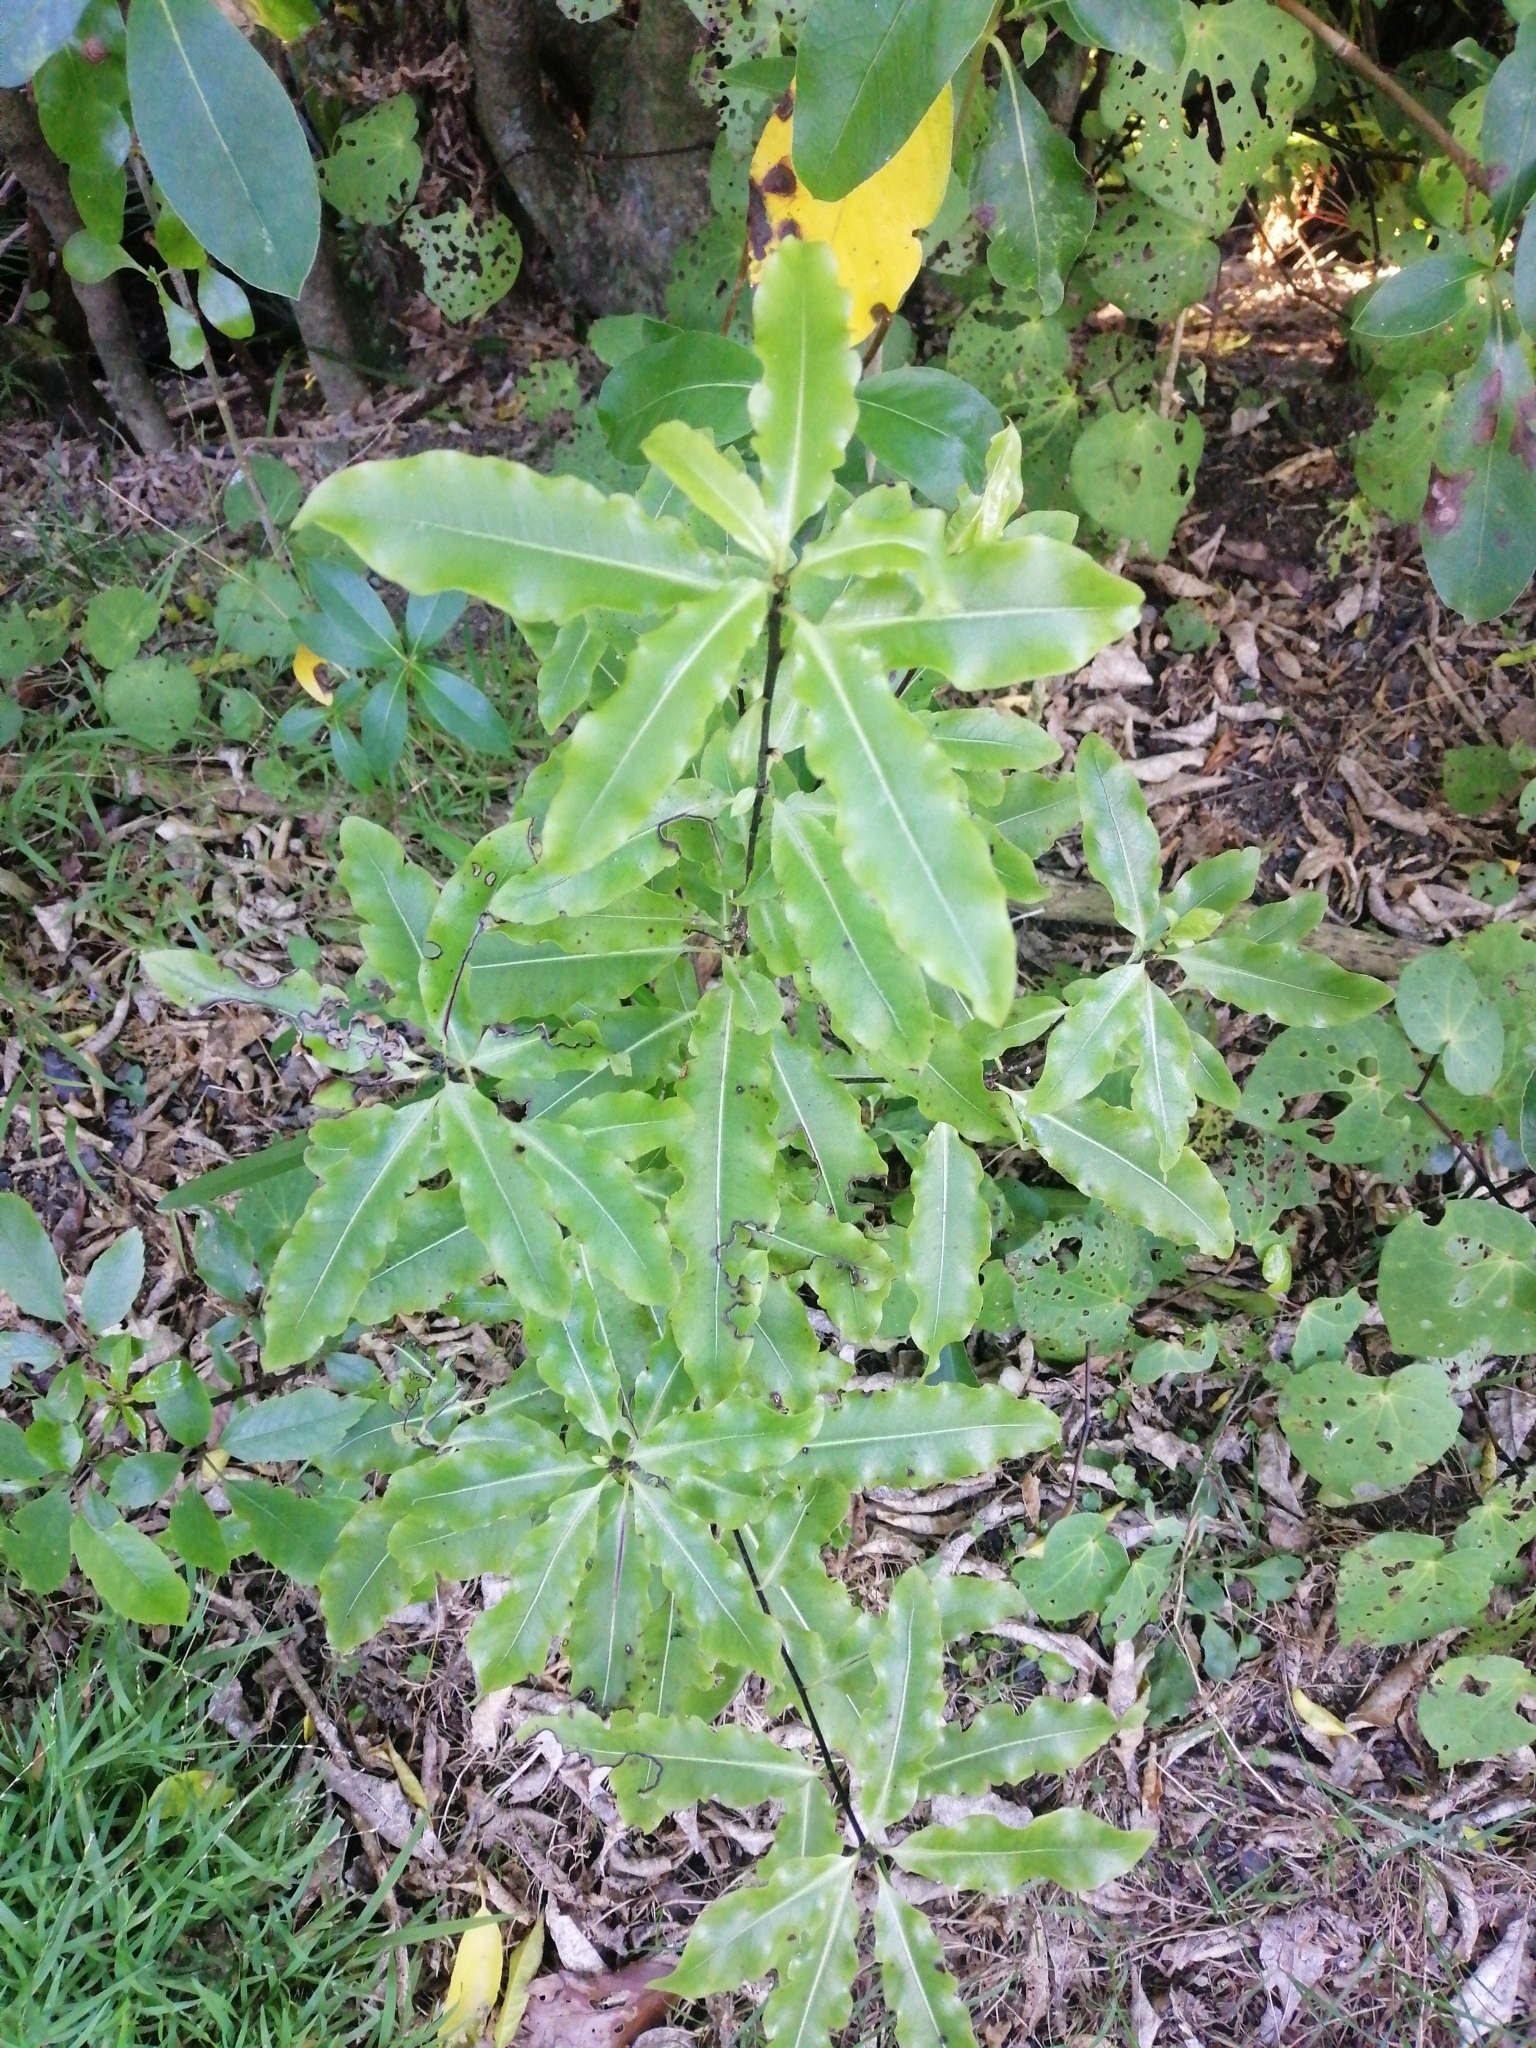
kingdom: Plantae
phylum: Tracheophyta
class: Magnoliopsida
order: Apiales
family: Pittosporaceae
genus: Pittosporum
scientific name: Pittosporum eugenioides
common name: Lemonwood
